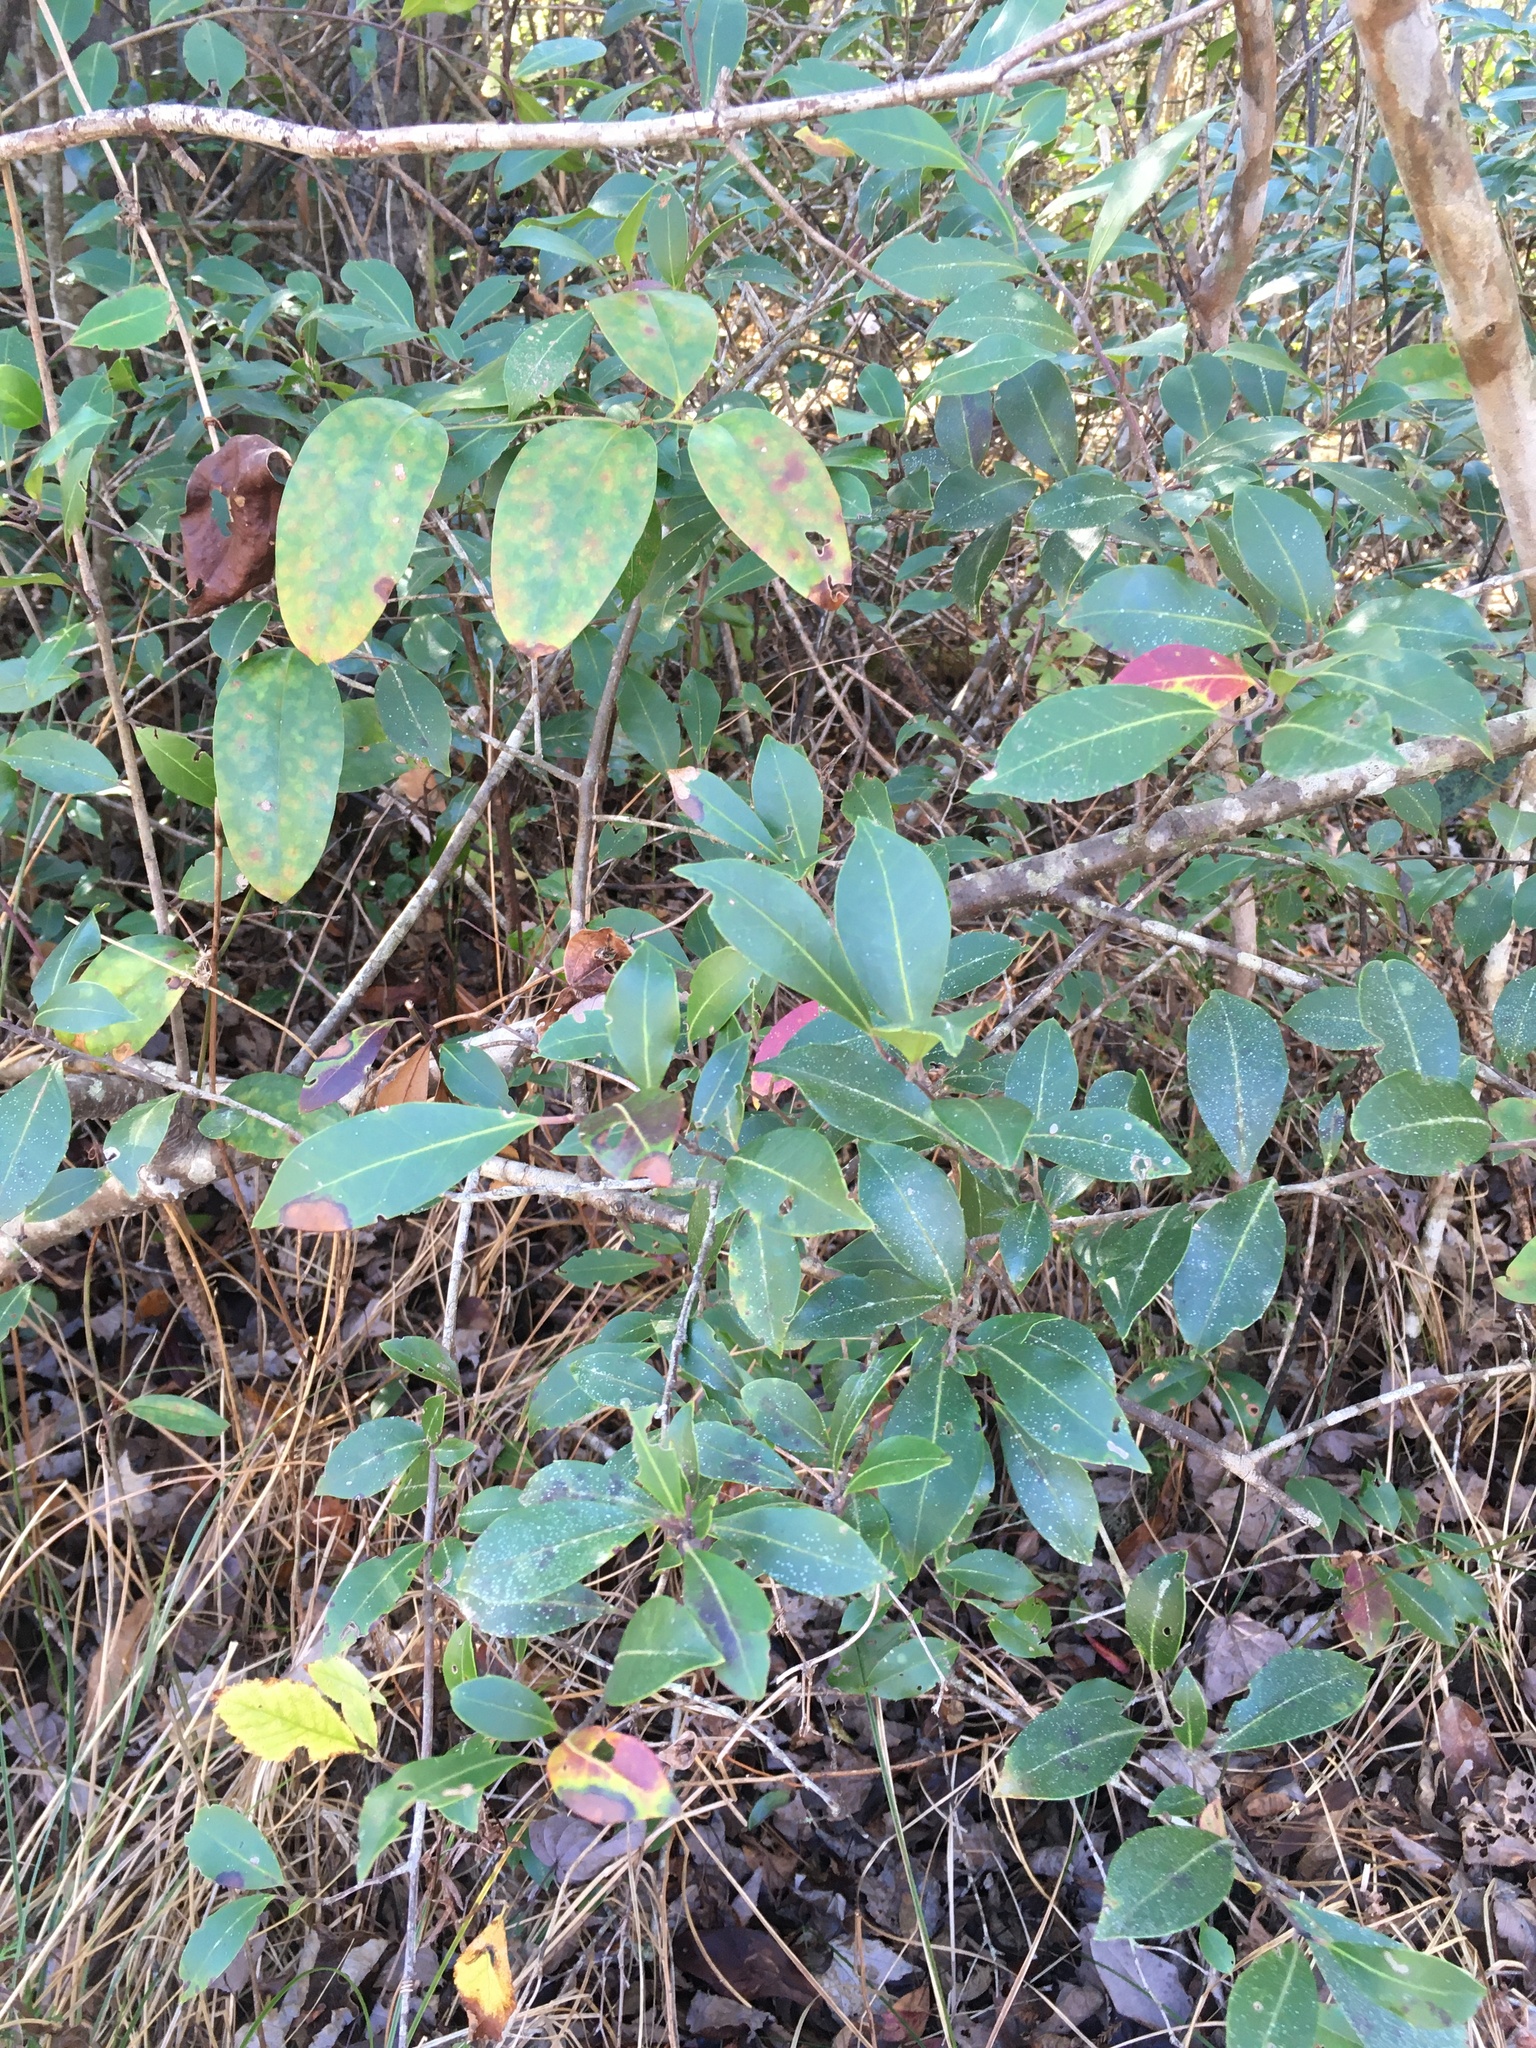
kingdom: Plantae
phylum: Tracheophyta
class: Magnoliopsida
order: Aquifoliales
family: Aquifoliaceae
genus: Ilex
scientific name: Ilex coriacea
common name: Sweet gallberry
